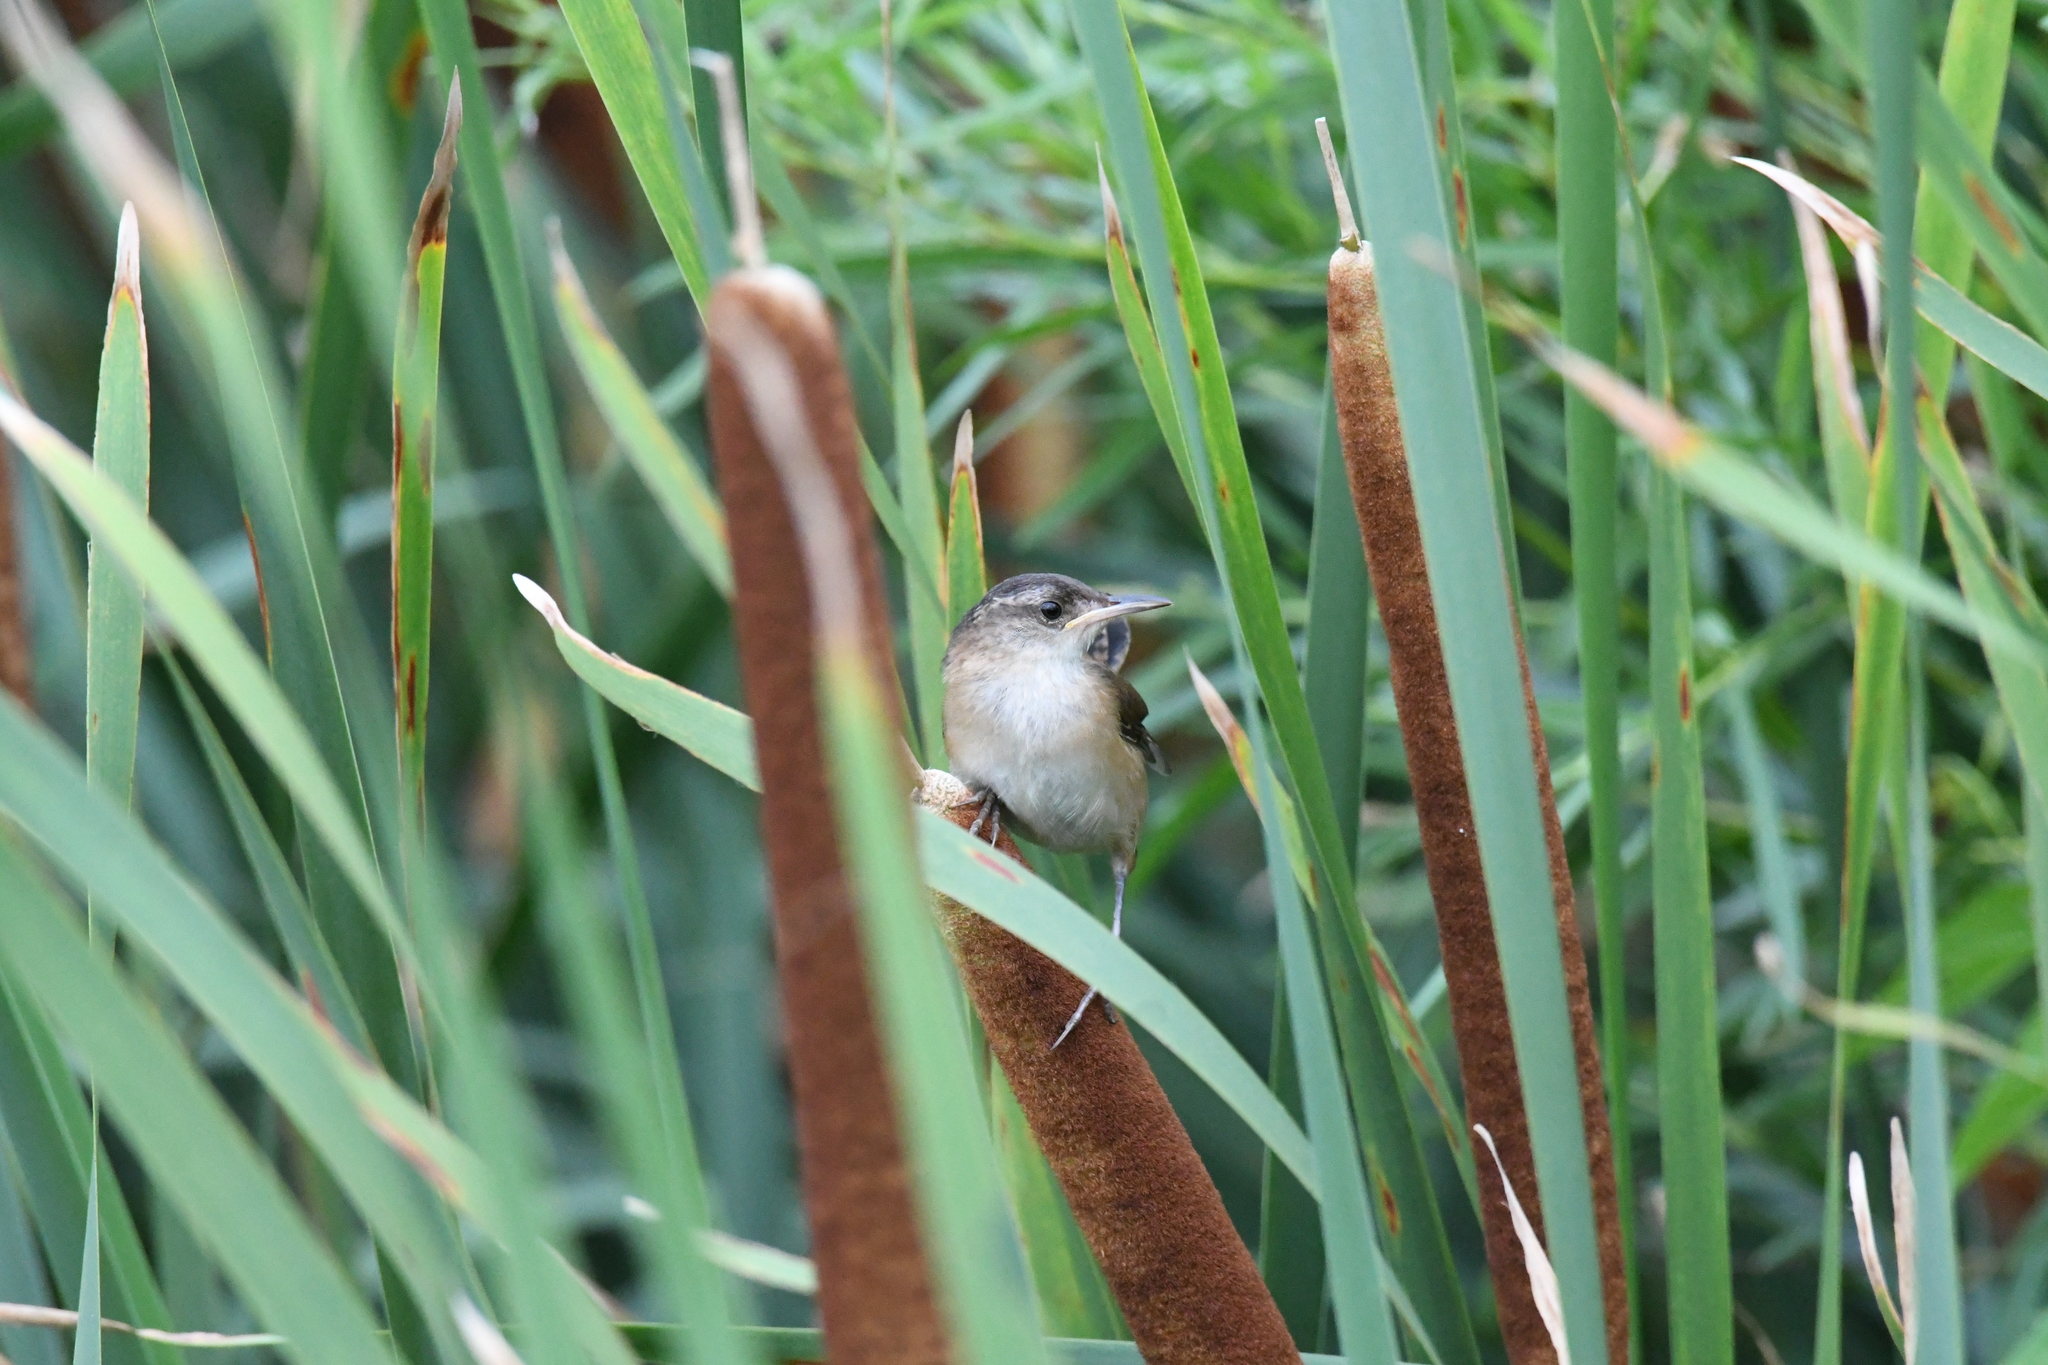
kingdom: Animalia
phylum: Chordata
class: Aves
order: Passeriformes
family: Troglodytidae
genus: Cistothorus
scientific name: Cistothorus palustris
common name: Marsh wren
